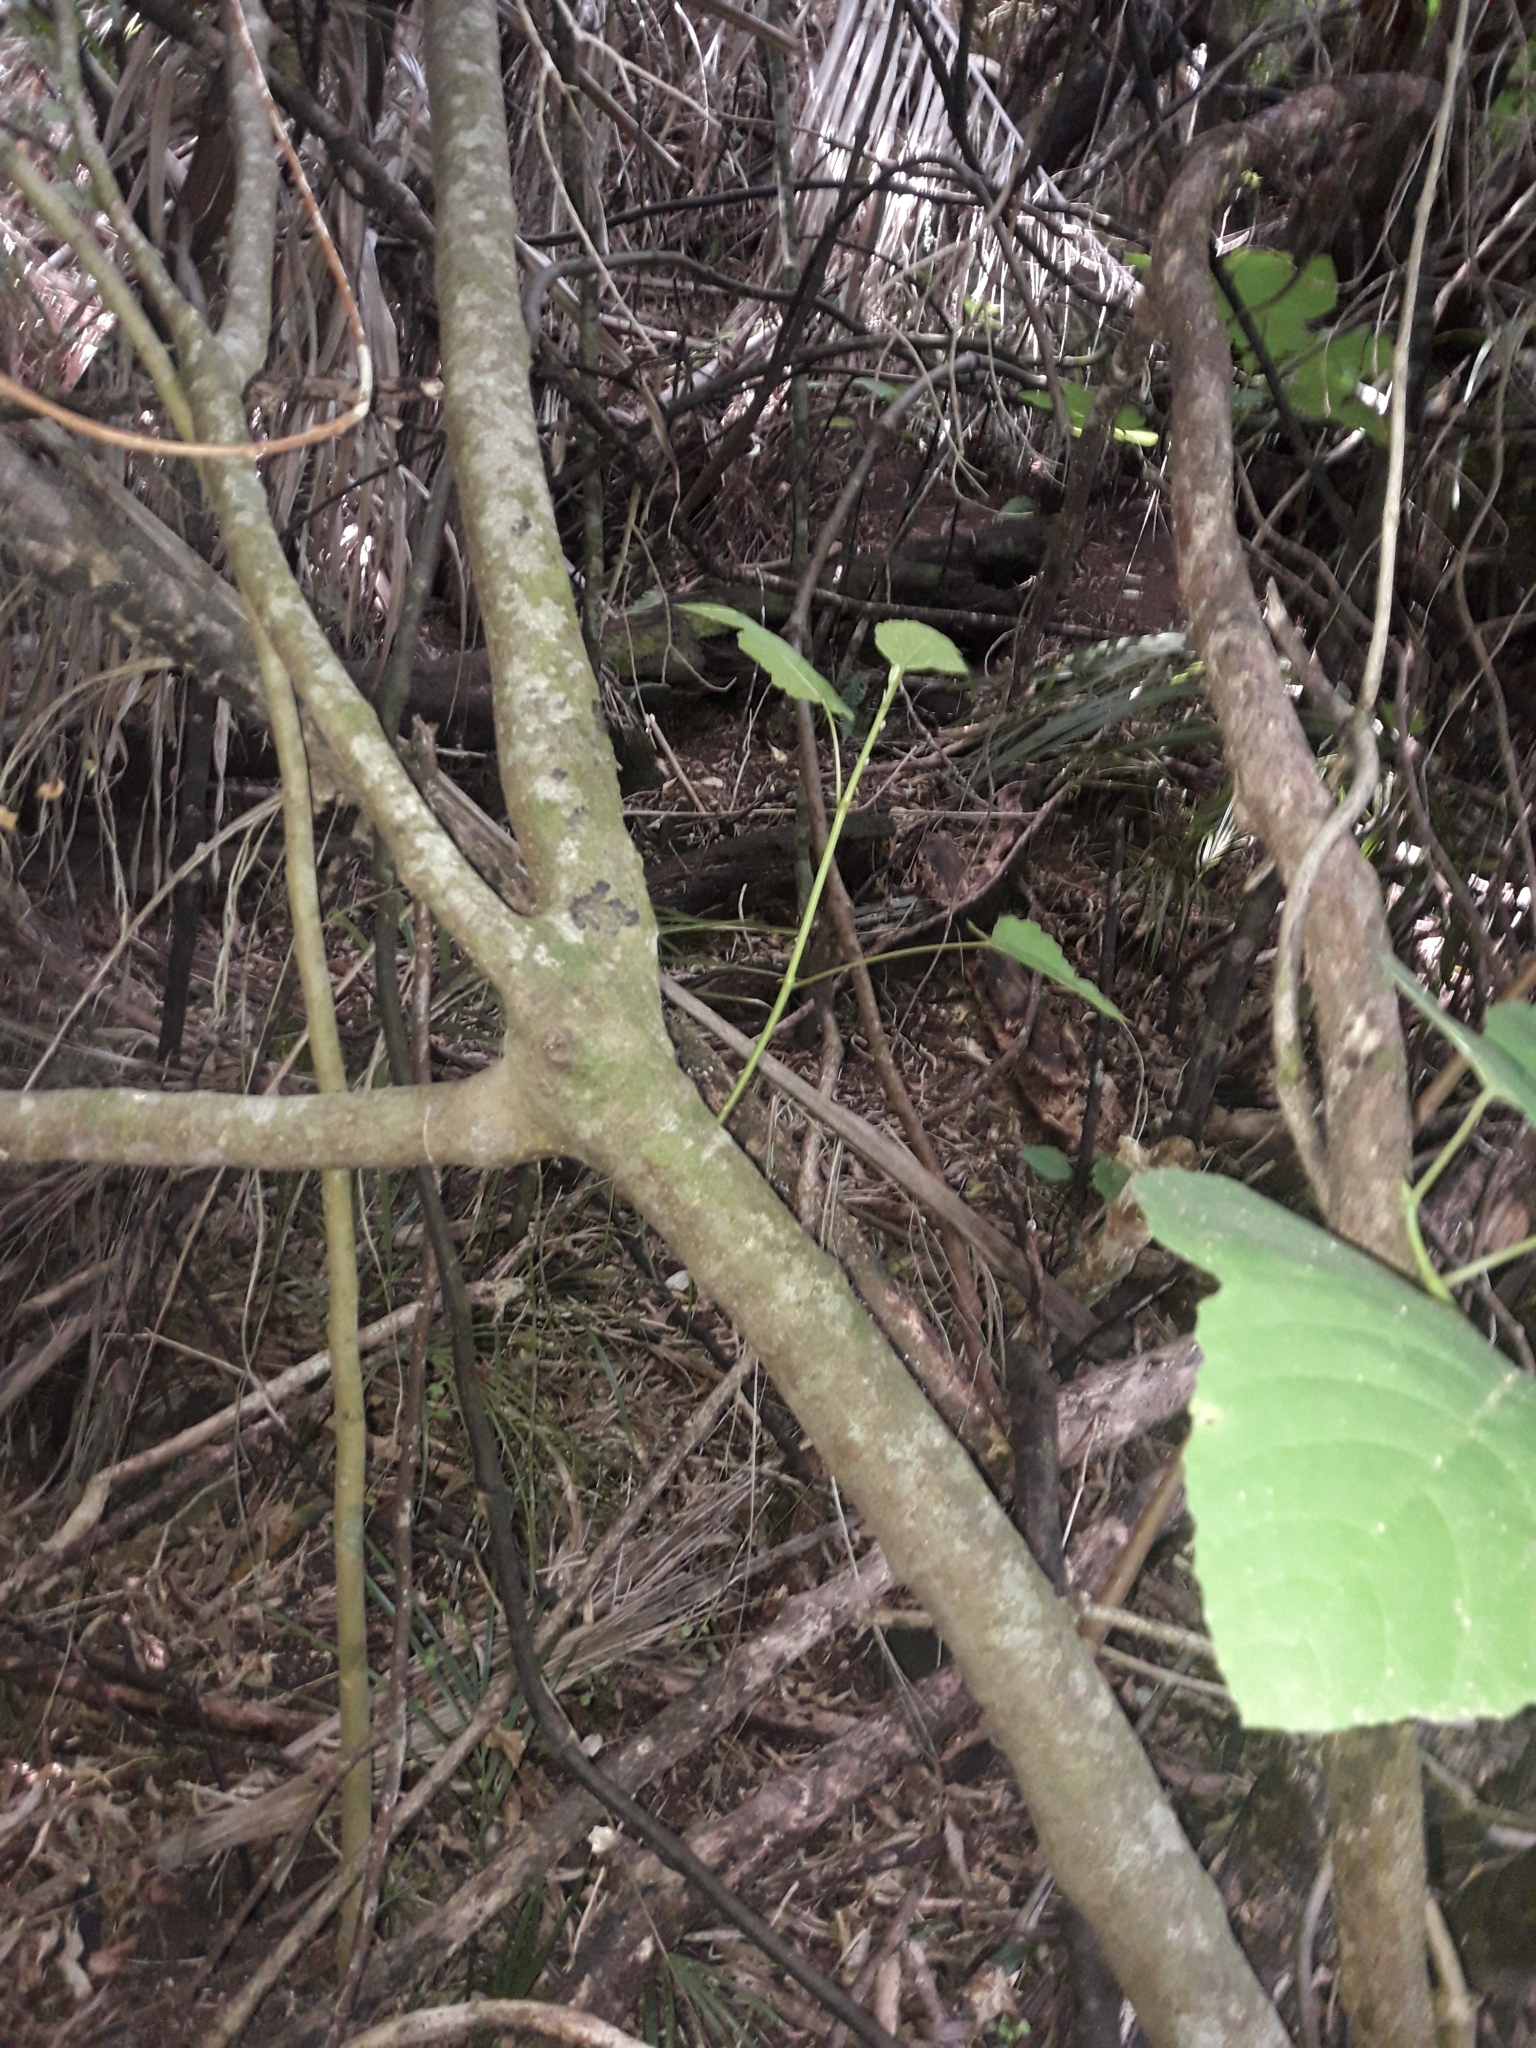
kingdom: Plantae
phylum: Tracheophyta
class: Magnoliopsida
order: Rosales
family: Moraceae
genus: Ficus
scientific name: Ficus carica
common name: Fig
